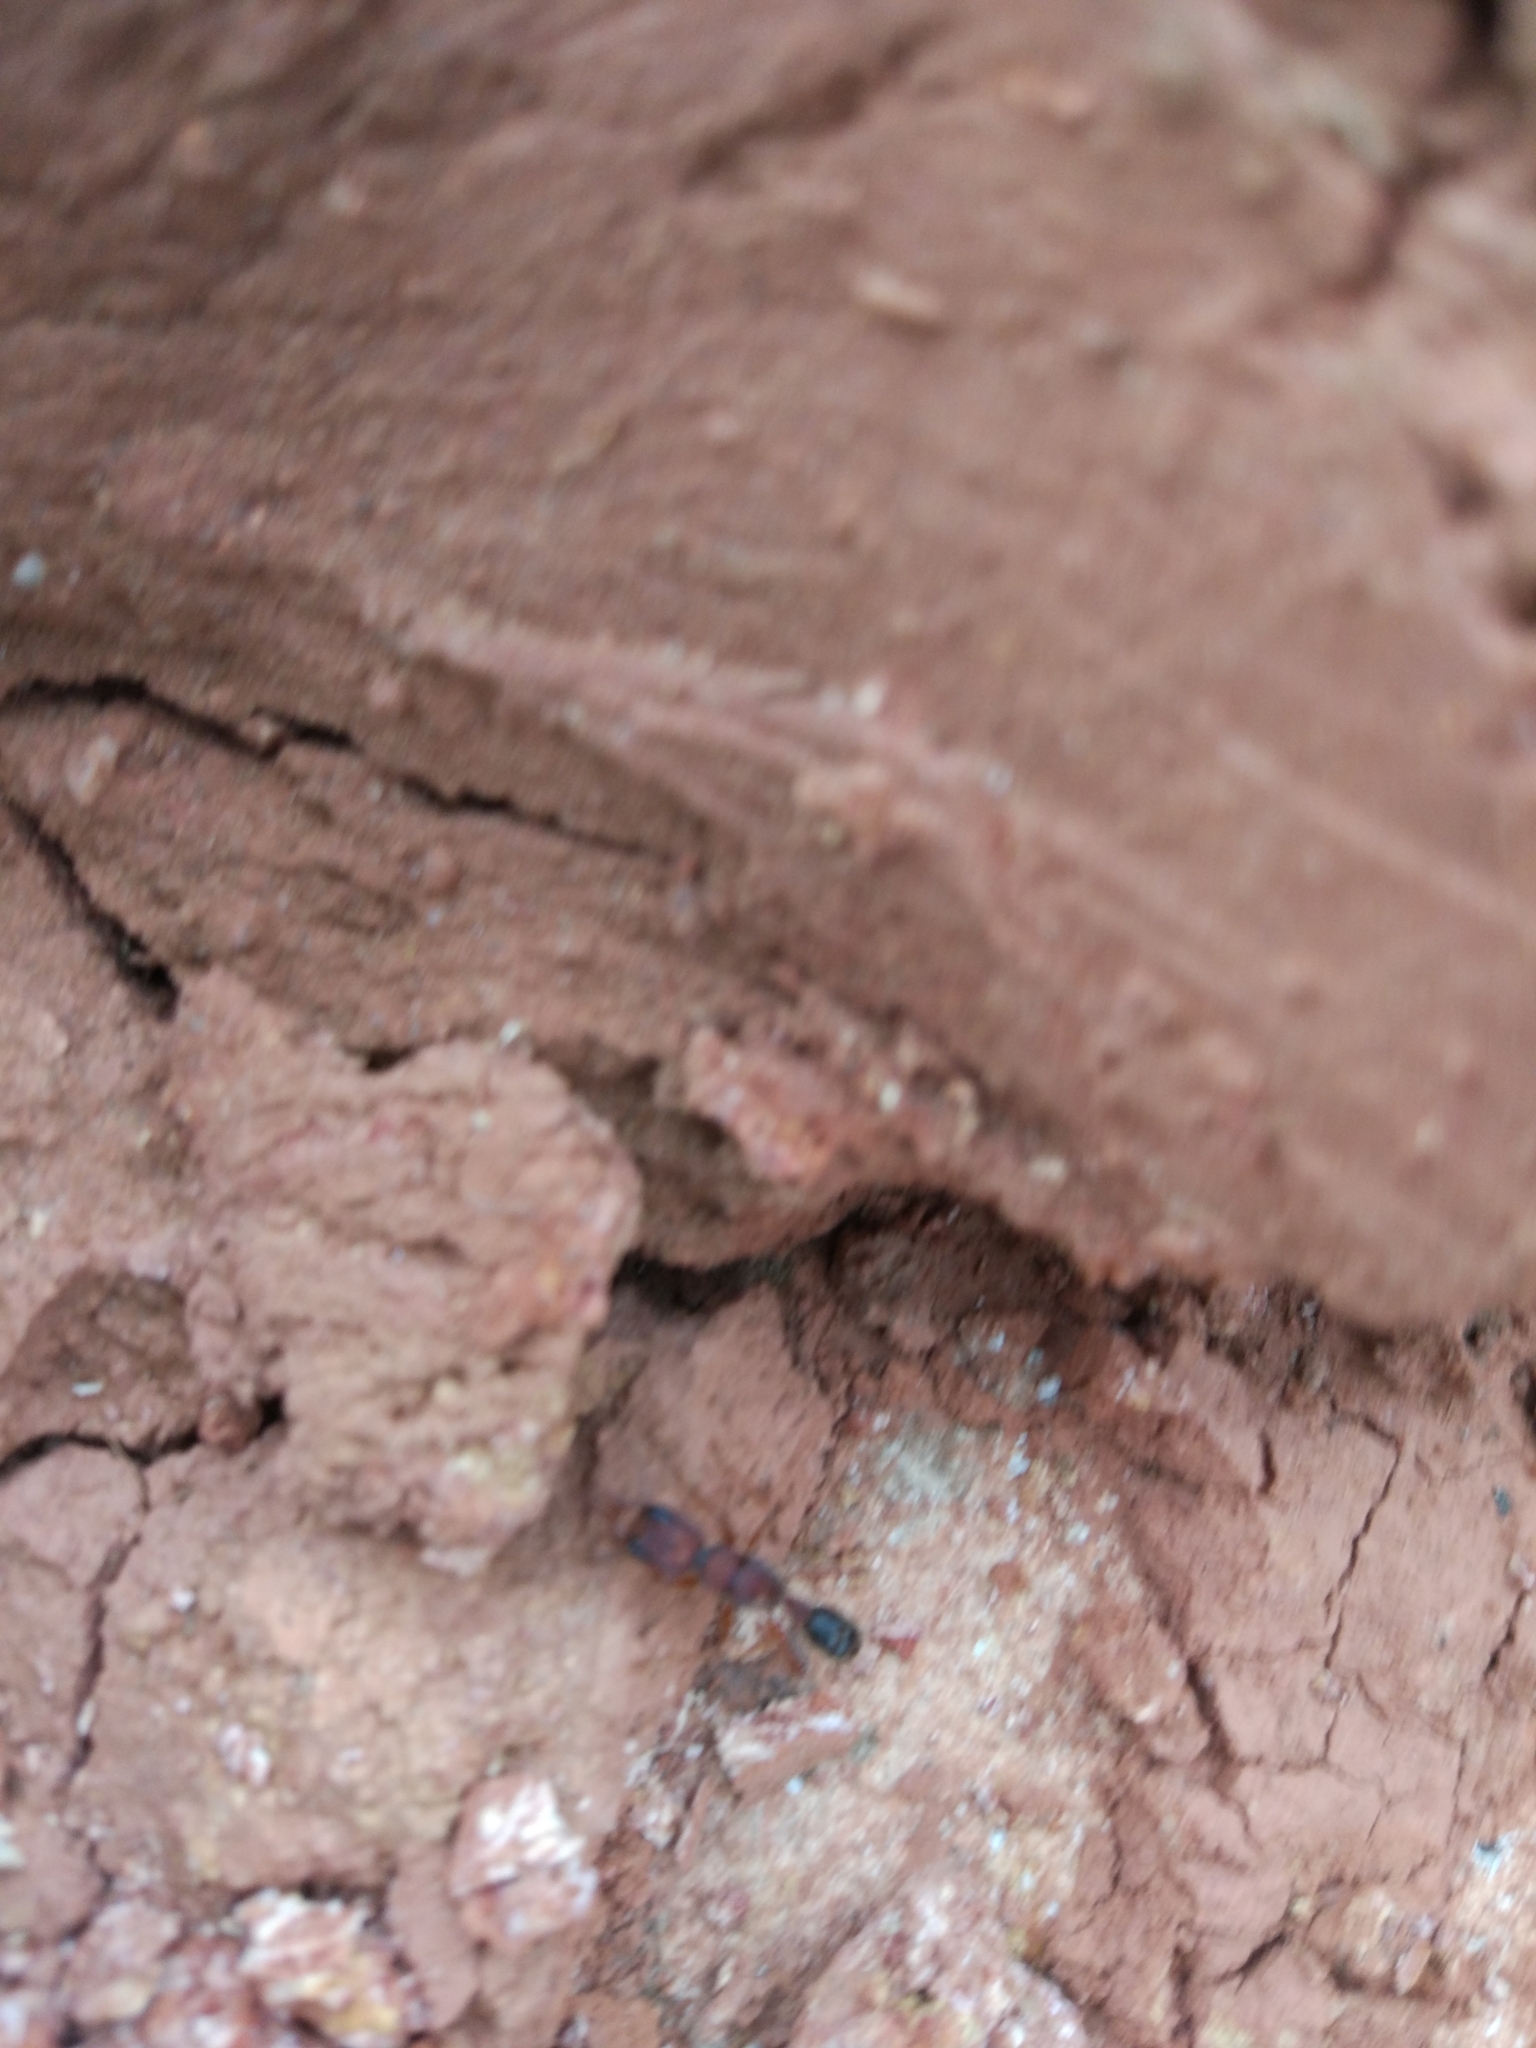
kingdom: Animalia
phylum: Arthropoda
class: Insecta
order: Hymenoptera
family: Formicidae
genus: Harpegnathos
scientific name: Harpegnathos saltator
